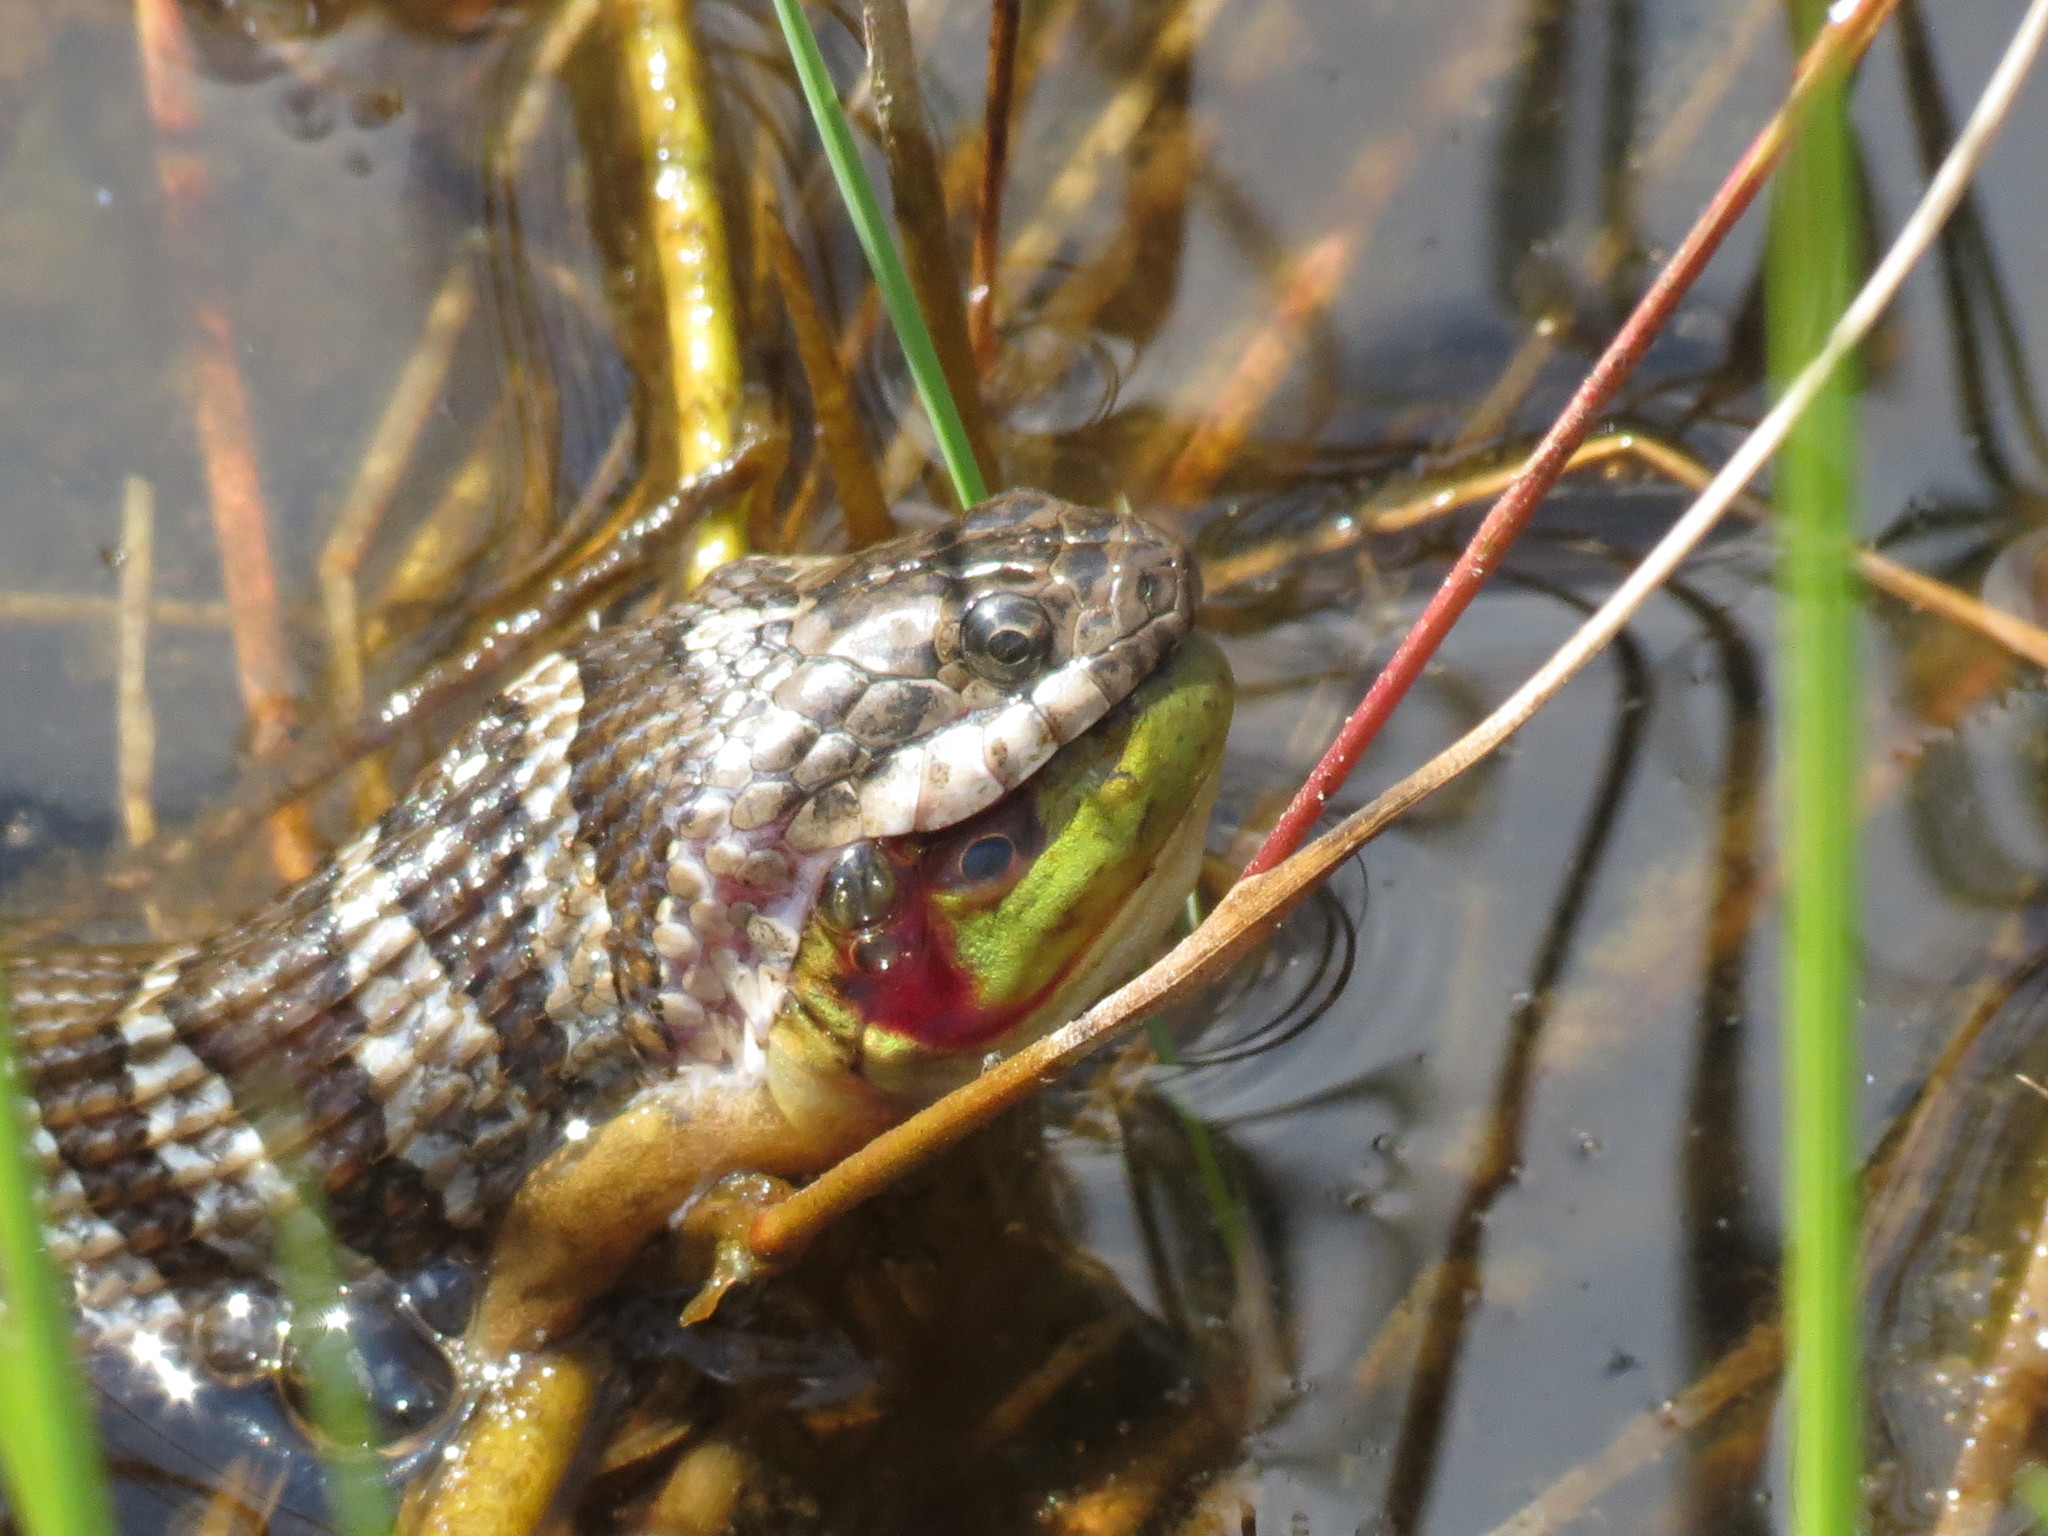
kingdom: Animalia
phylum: Chordata
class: Squamata
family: Colubridae
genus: Nerodia
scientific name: Nerodia sipedon
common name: Northern water snake
